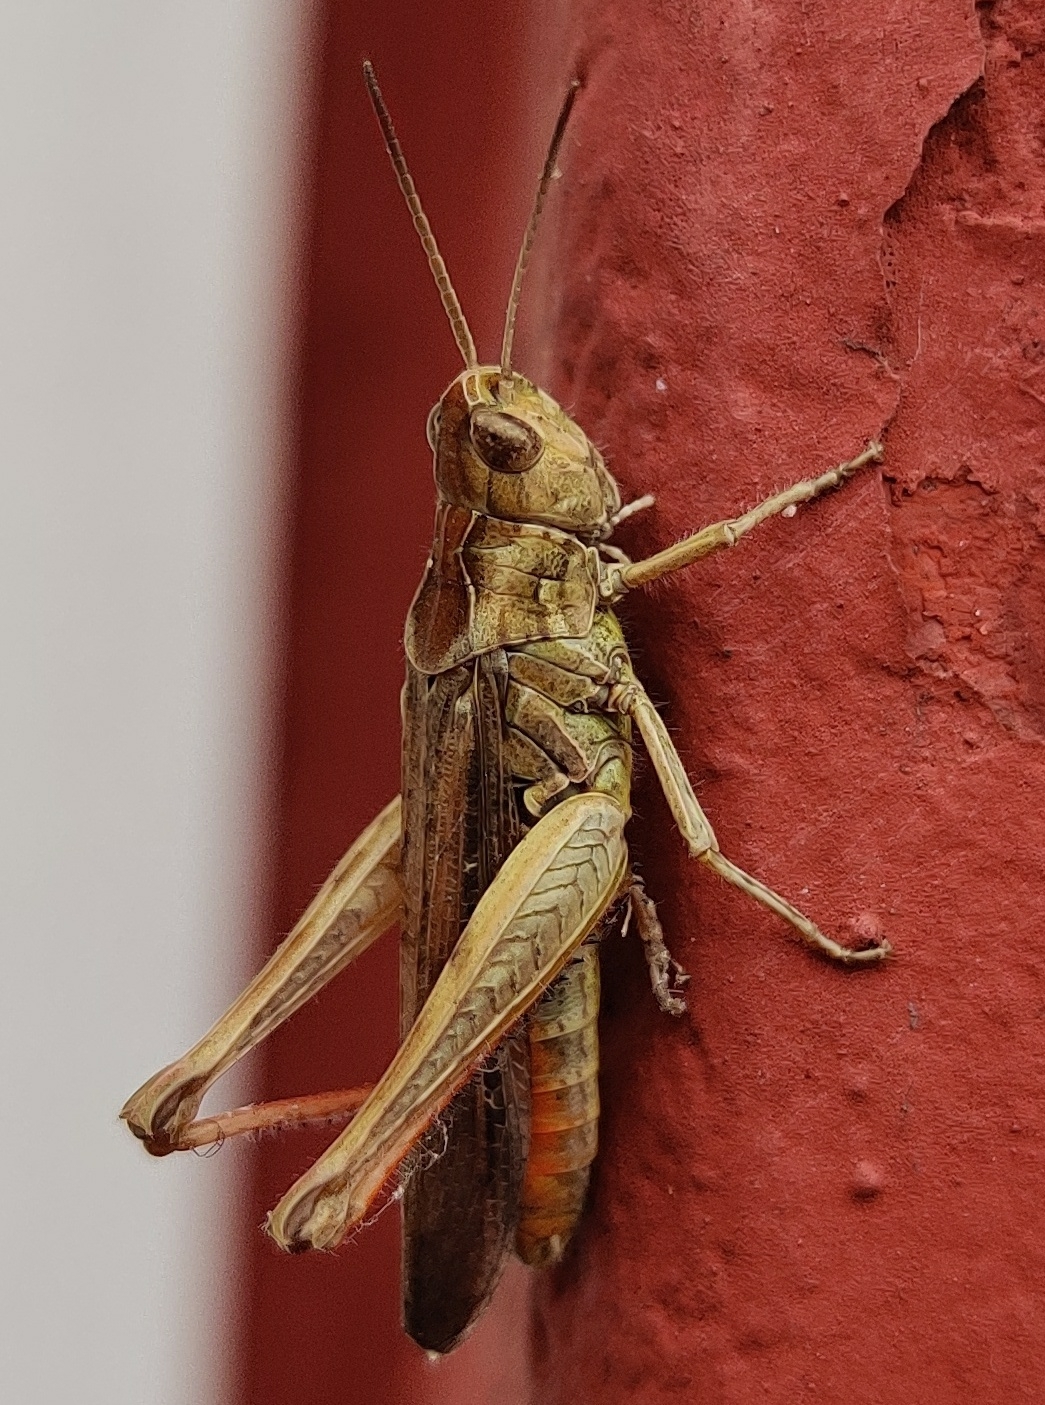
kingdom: Animalia
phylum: Arthropoda
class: Insecta
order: Orthoptera
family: Acrididae
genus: Chorthippus
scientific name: Chorthippus brunneus
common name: Field grasshopper
